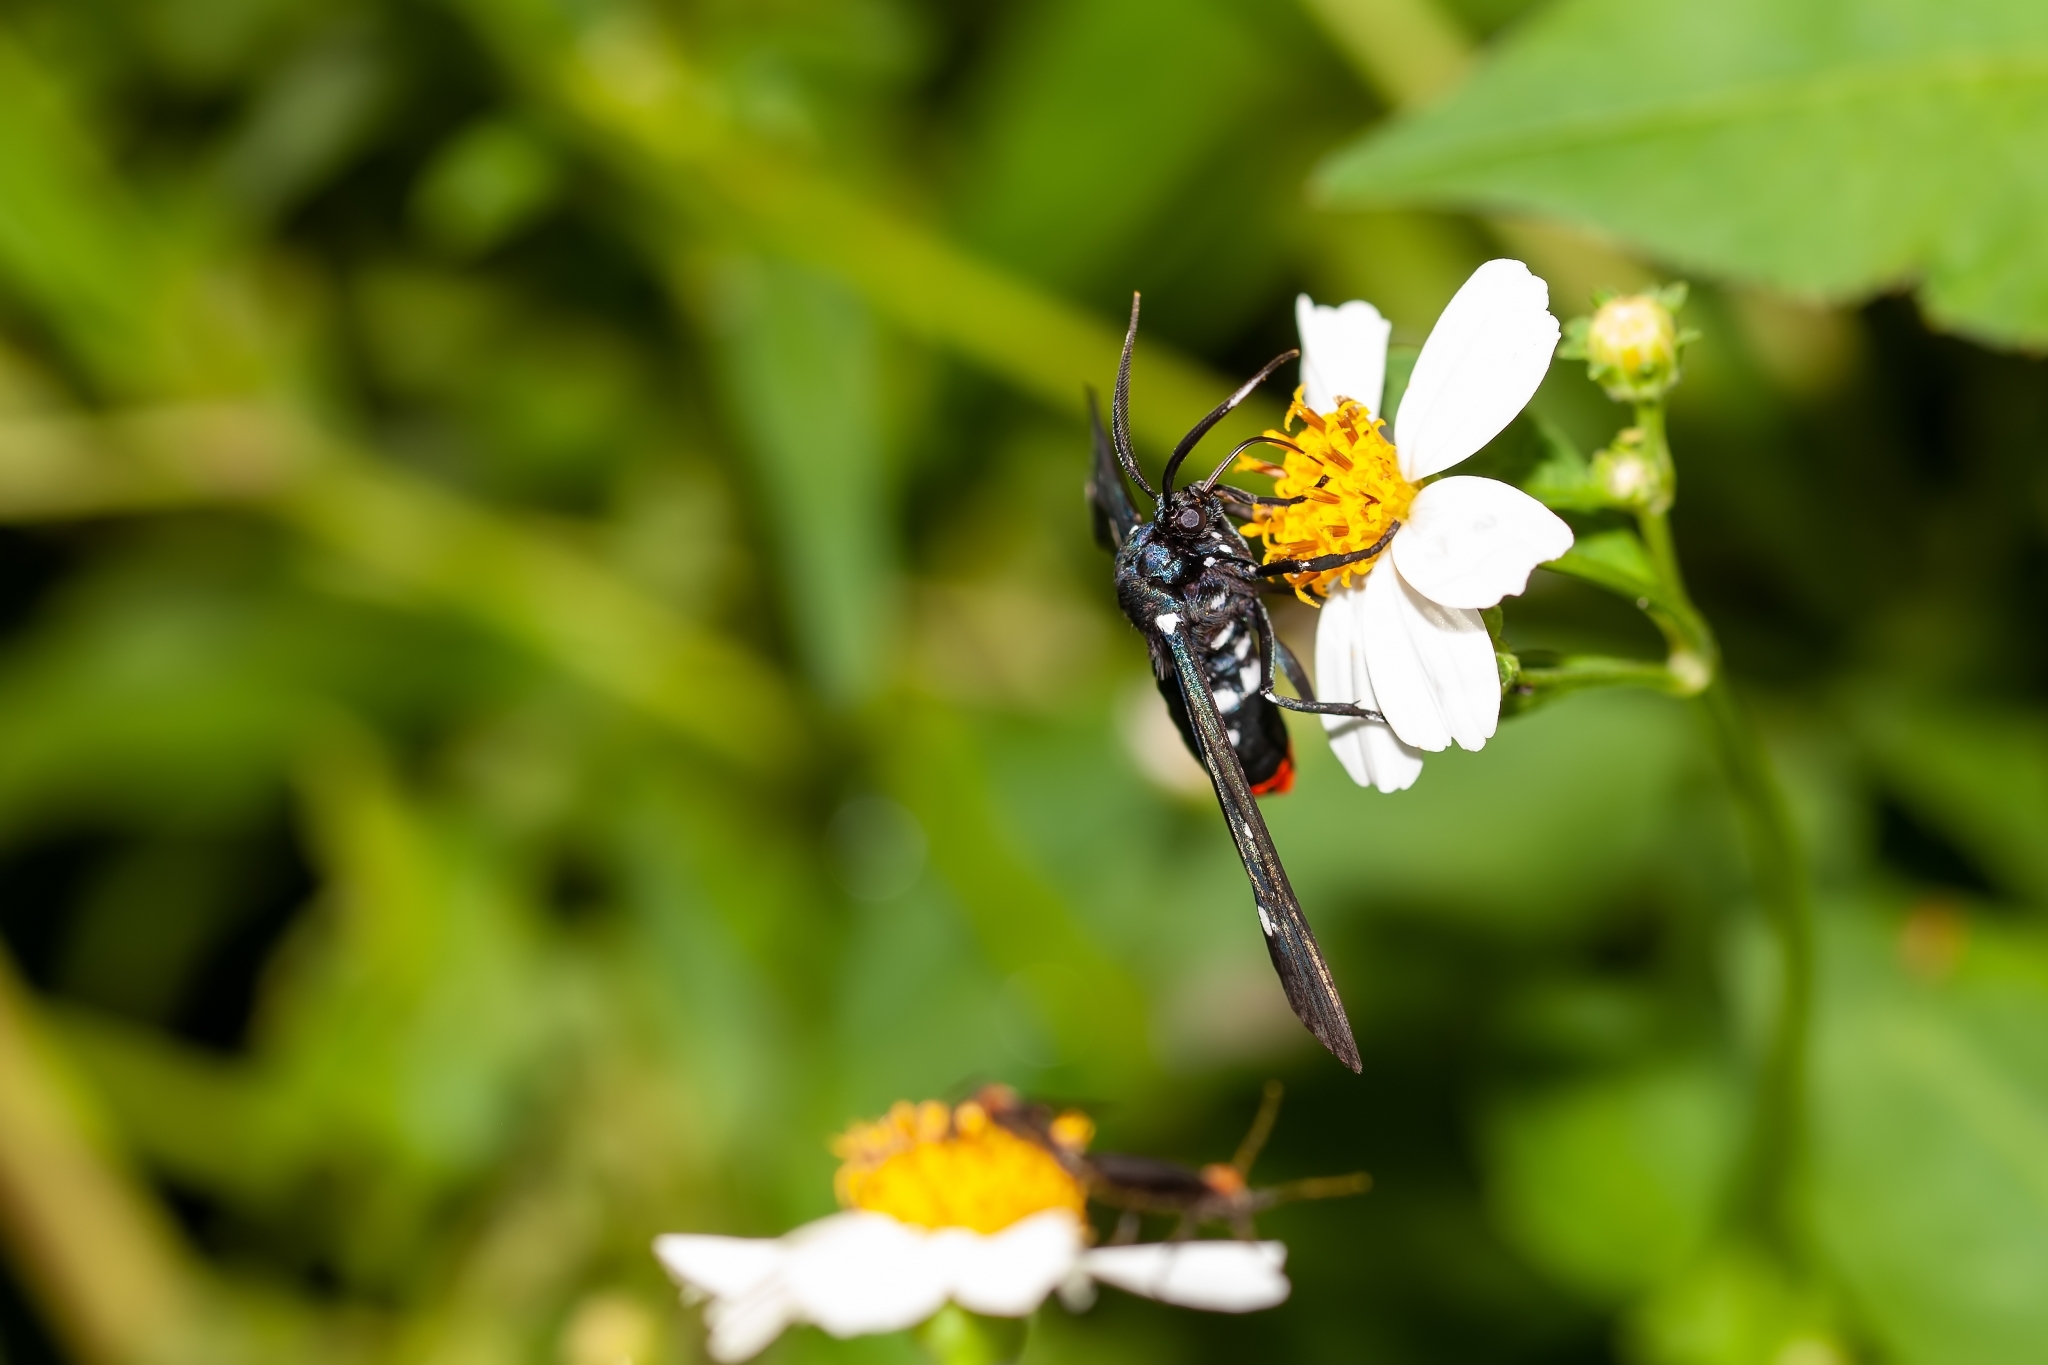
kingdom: Animalia
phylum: Arthropoda
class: Insecta
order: Lepidoptera
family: Erebidae
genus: Syntomeida
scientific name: Syntomeida epilais
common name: Polka-dot wasp moth
